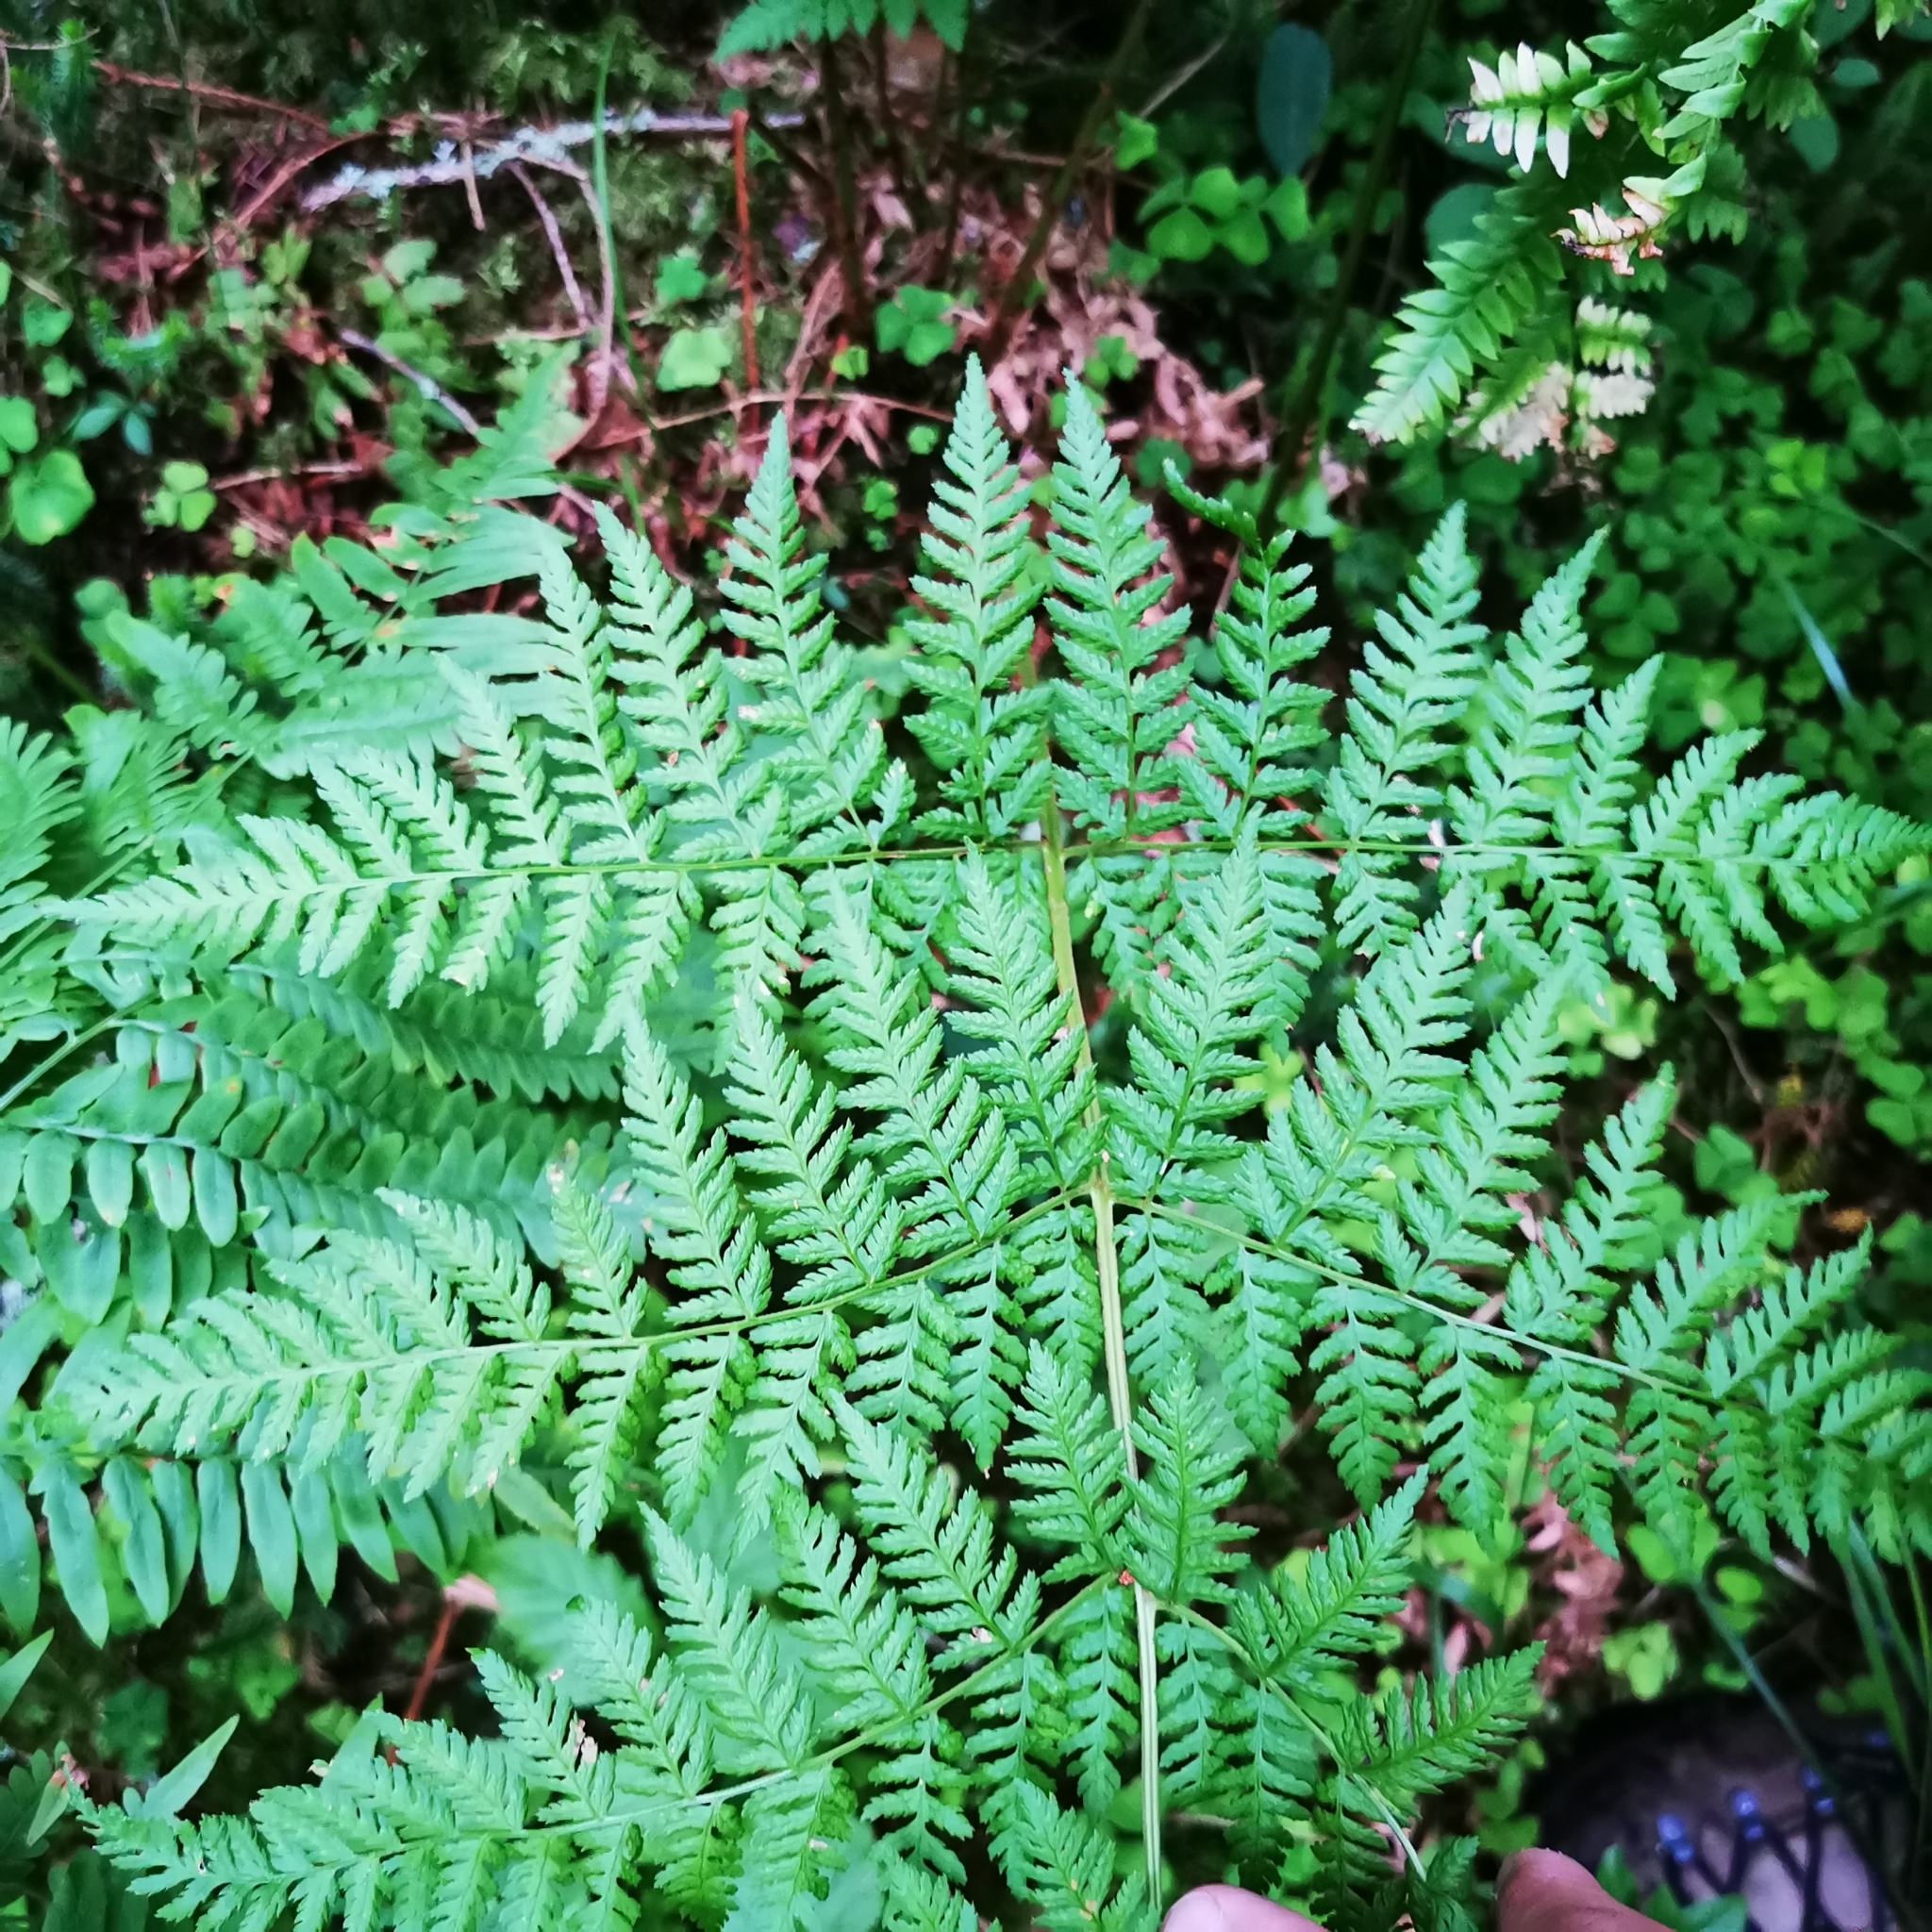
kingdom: Plantae
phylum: Tracheophyta
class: Polypodiopsida
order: Polypodiales
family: Dryopteridaceae
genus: Dryopteris
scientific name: Dryopteris expansa
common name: Northern buckler fern
